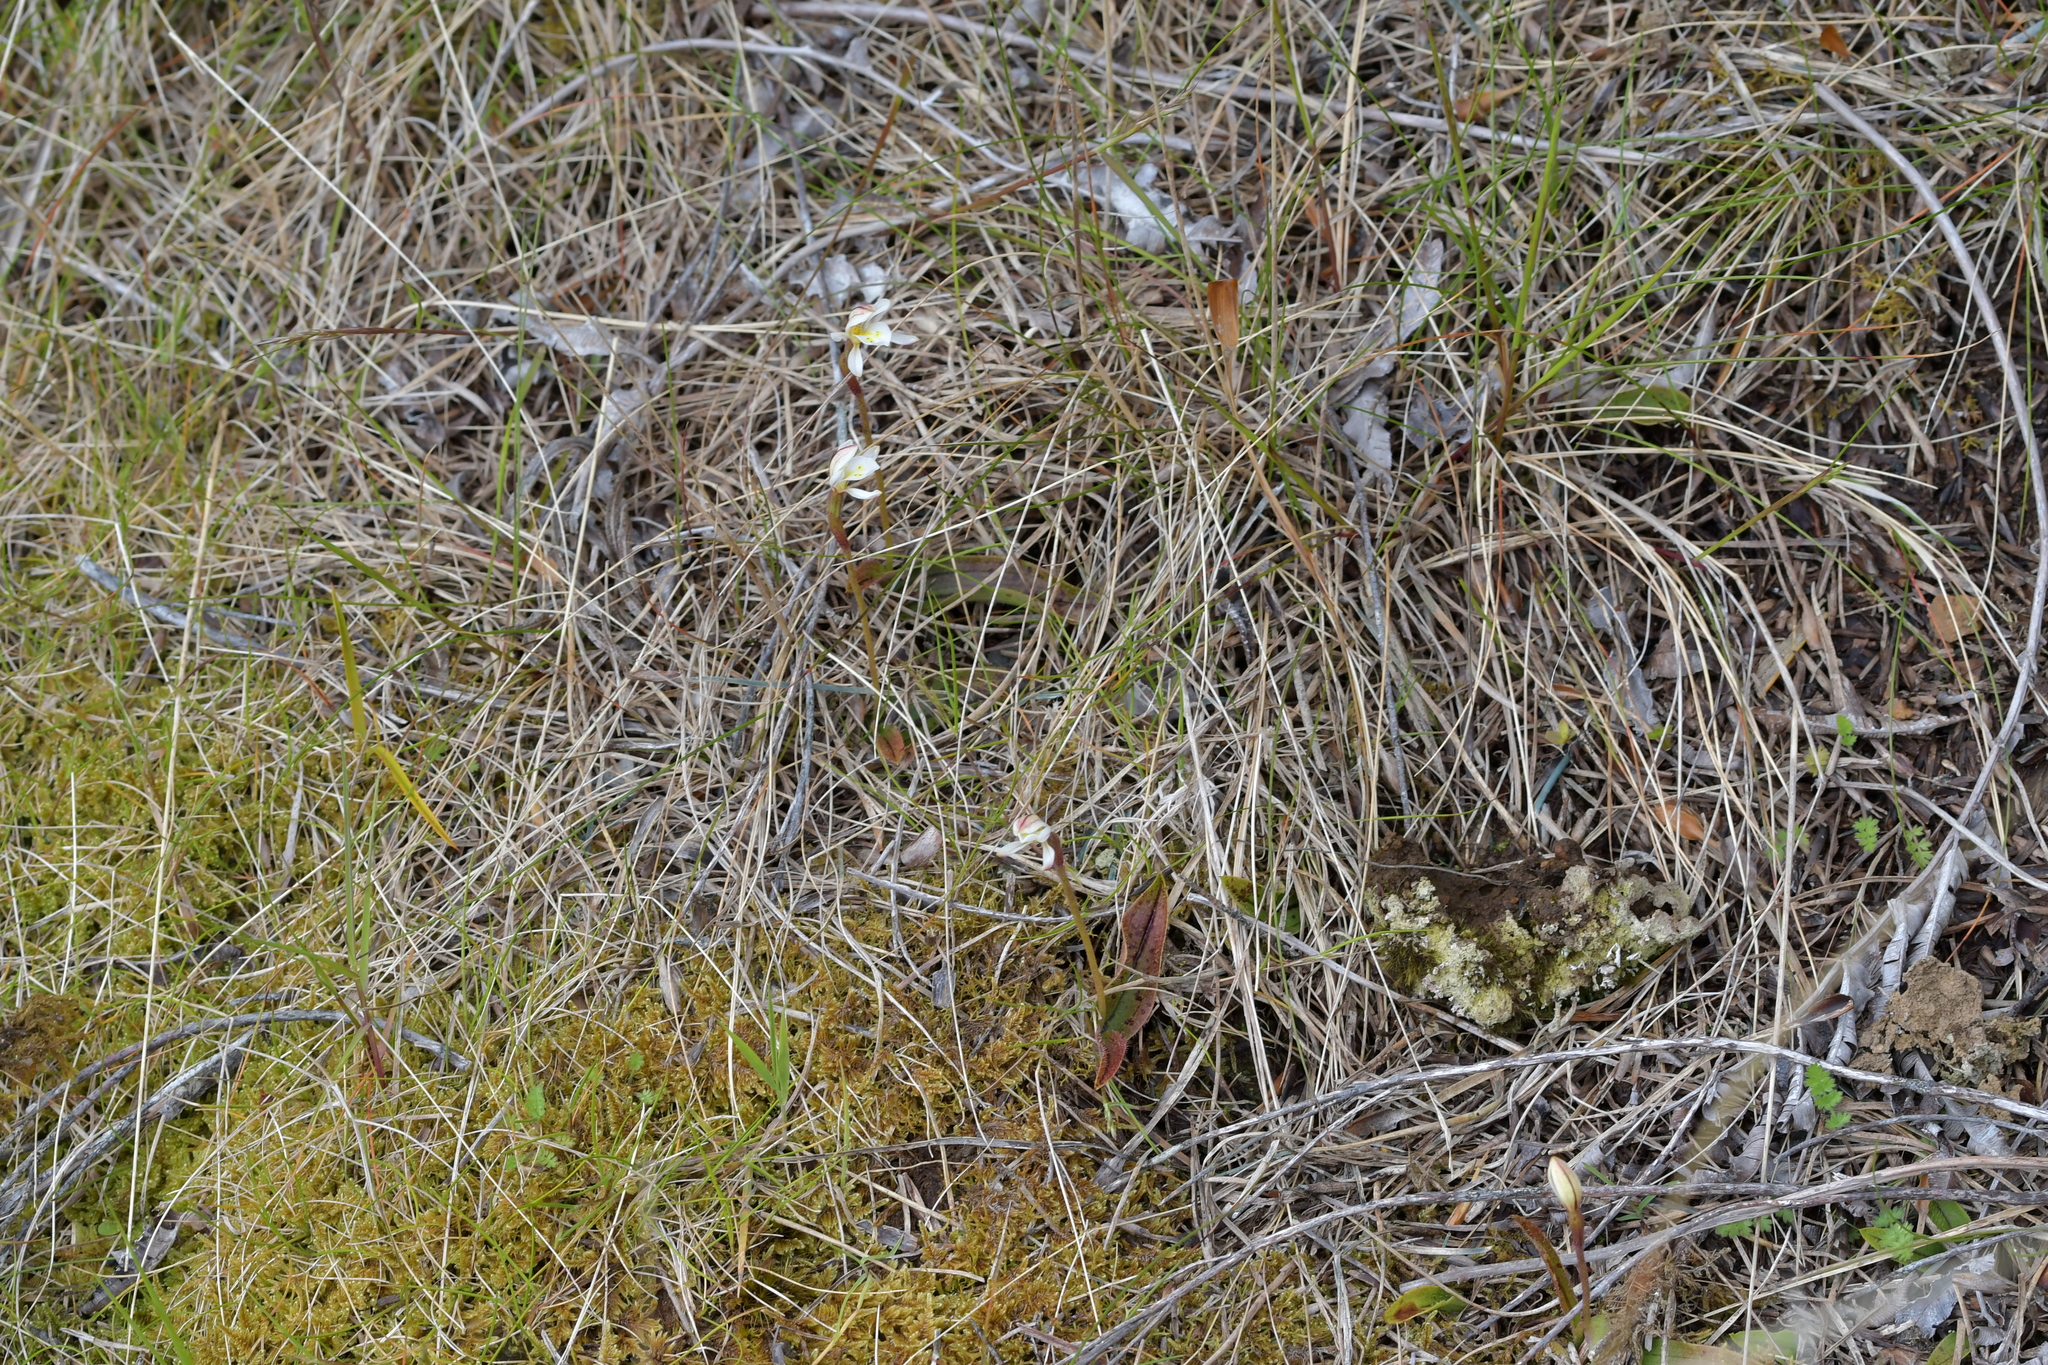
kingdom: Plantae
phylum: Tracheophyta
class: Liliopsida
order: Asparagales
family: Orchidaceae
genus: Aporostylis
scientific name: Aporostylis bifolia
